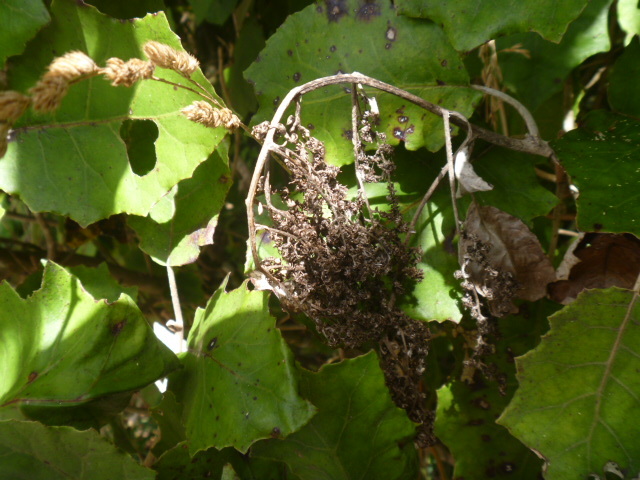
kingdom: Plantae
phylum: Tracheophyta
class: Magnoliopsida
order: Asterales
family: Asteraceae
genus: Brachyglottis
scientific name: Brachyglottis repanda
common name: Hedge ragwort
